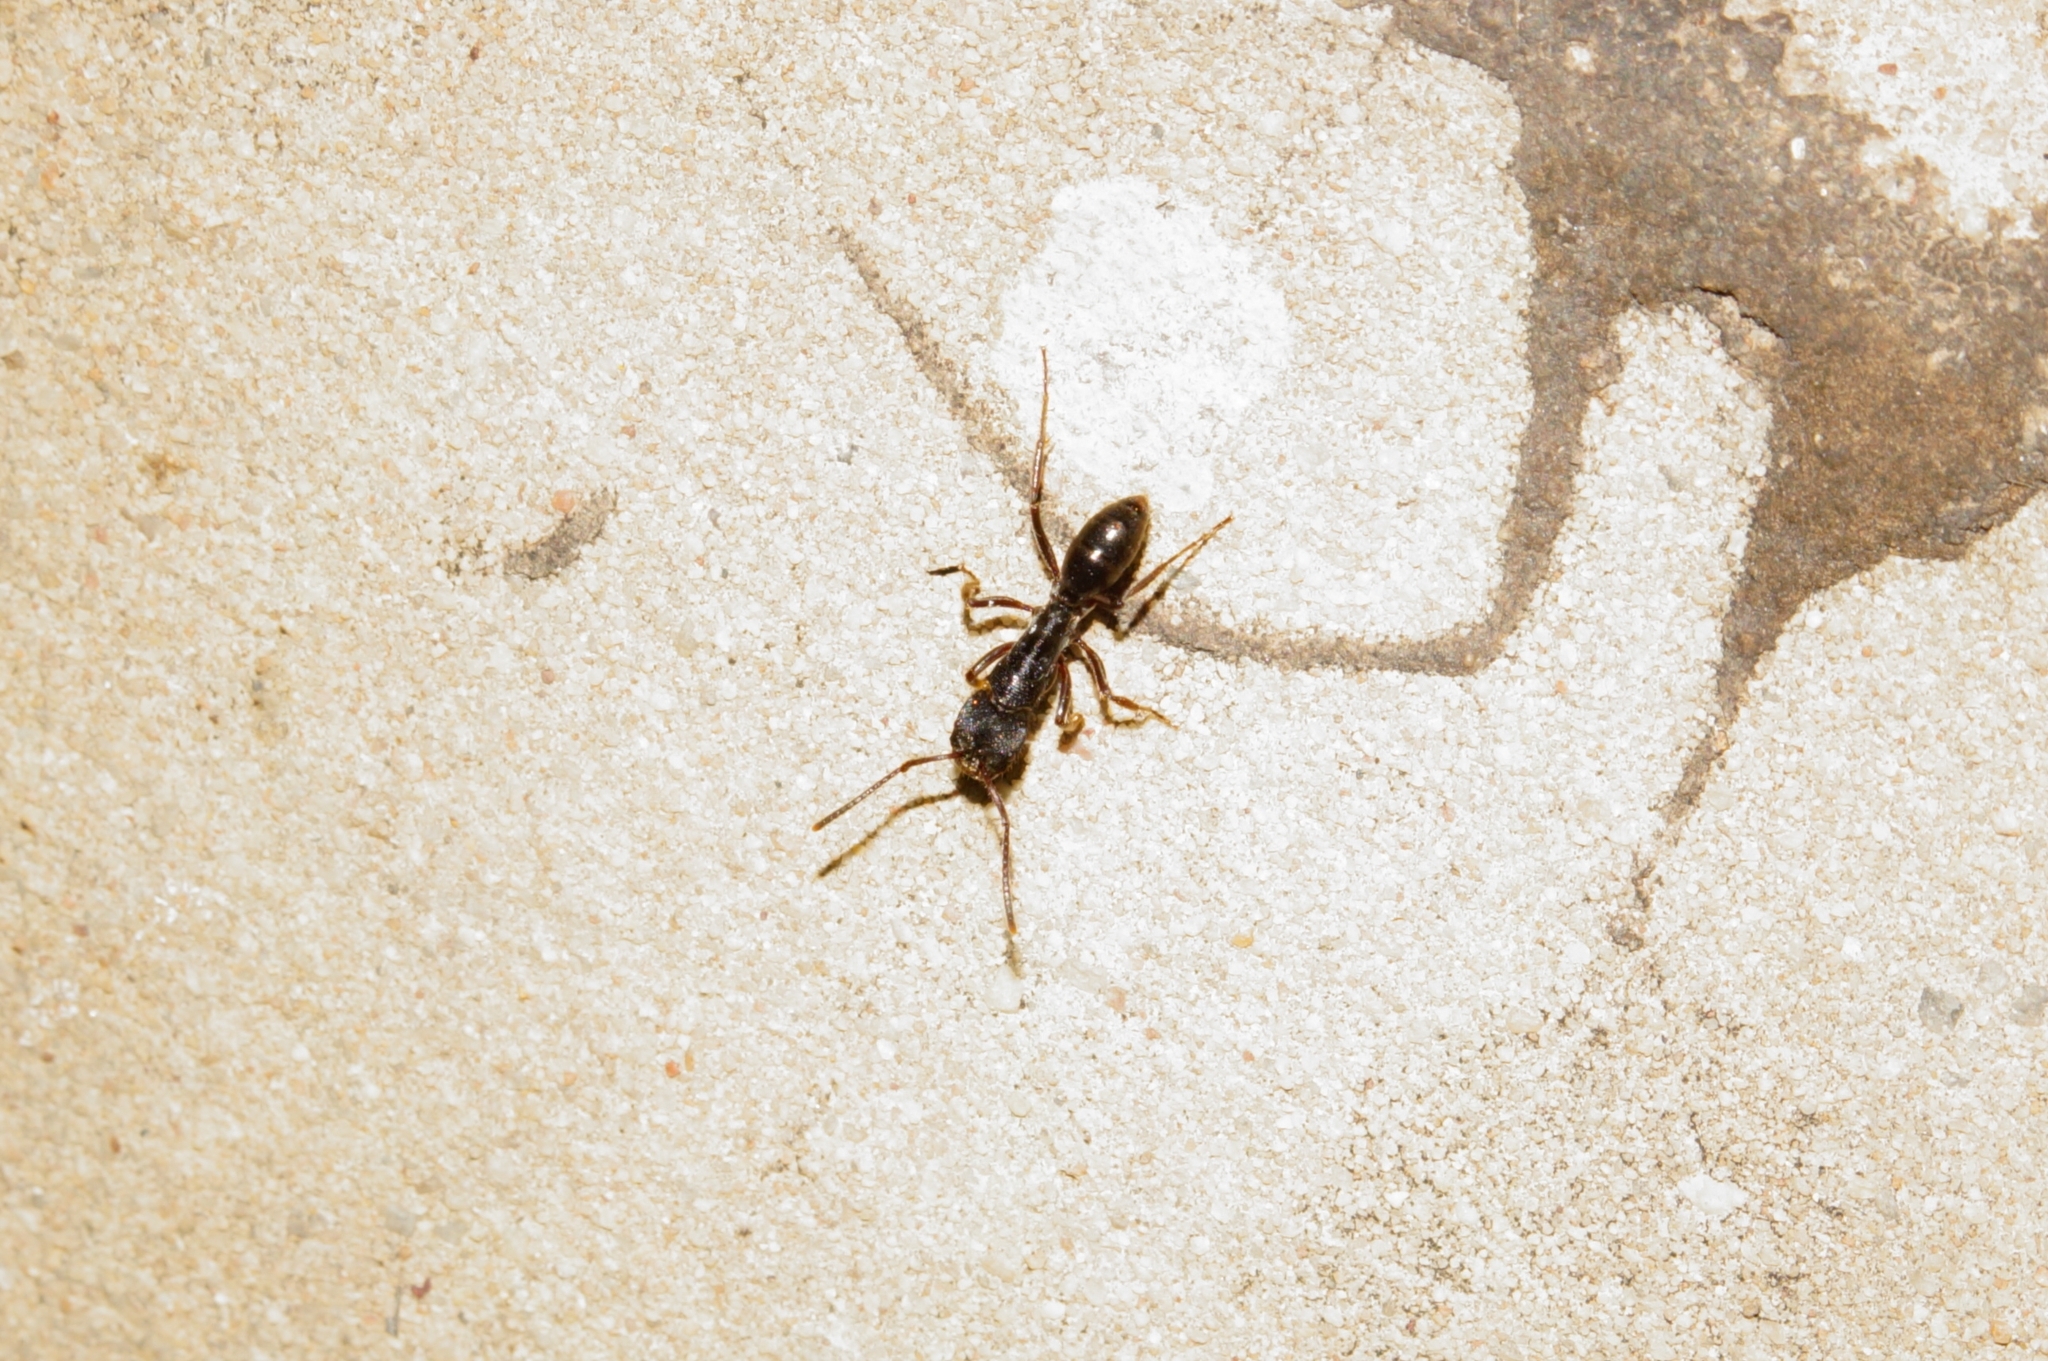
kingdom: Animalia
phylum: Arthropoda
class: Insecta
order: Hymenoptera
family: Formicidae
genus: Odontoponera
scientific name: Odontoponera denticulata
